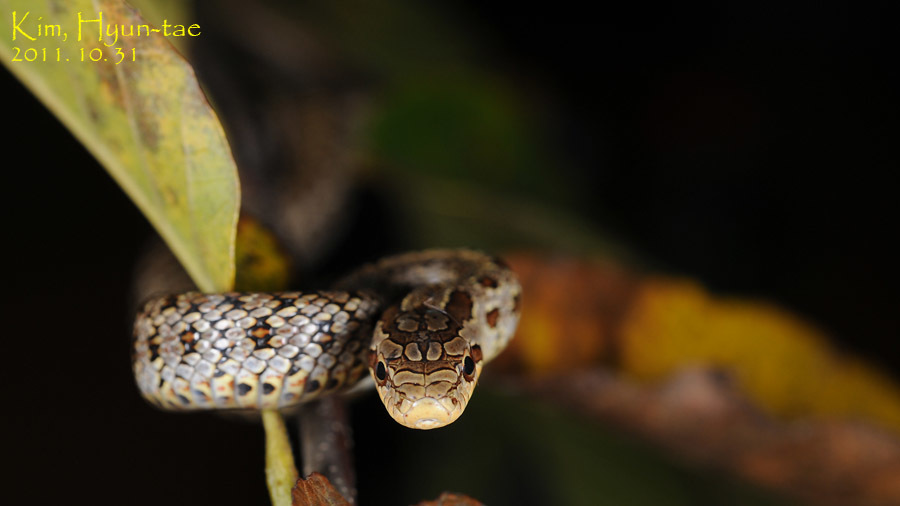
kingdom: Animalia
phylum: Chordata
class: Squamata
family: Colubridae
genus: Elaphe
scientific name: Elaphe dione
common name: Dione ratsnake
